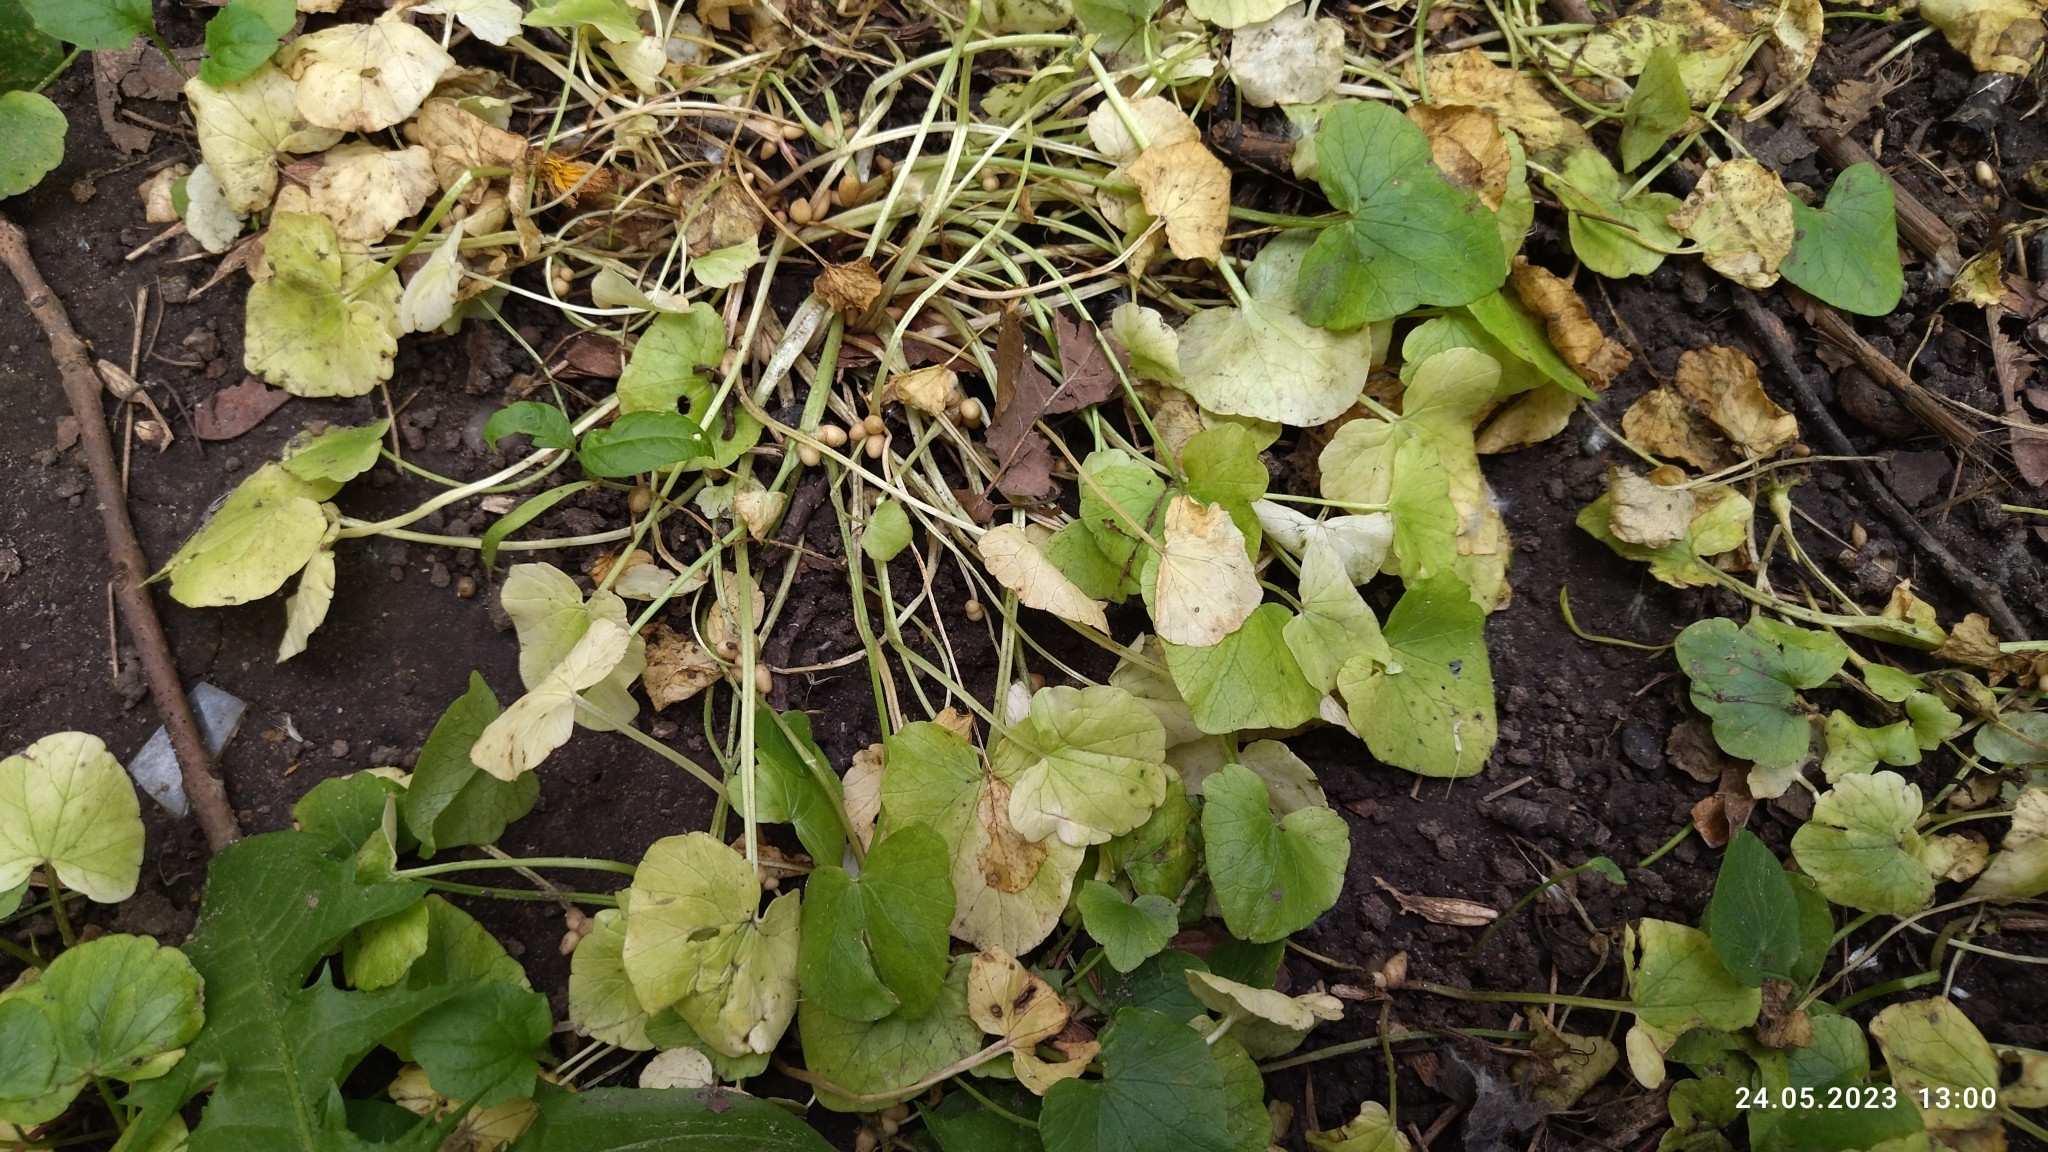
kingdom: Plantae
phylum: Tracheophyta
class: Magnoliopsida
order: Ranunculales
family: Ranunculaceae
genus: Ficaria
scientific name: Ficaria verna
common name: Lesser celandine
